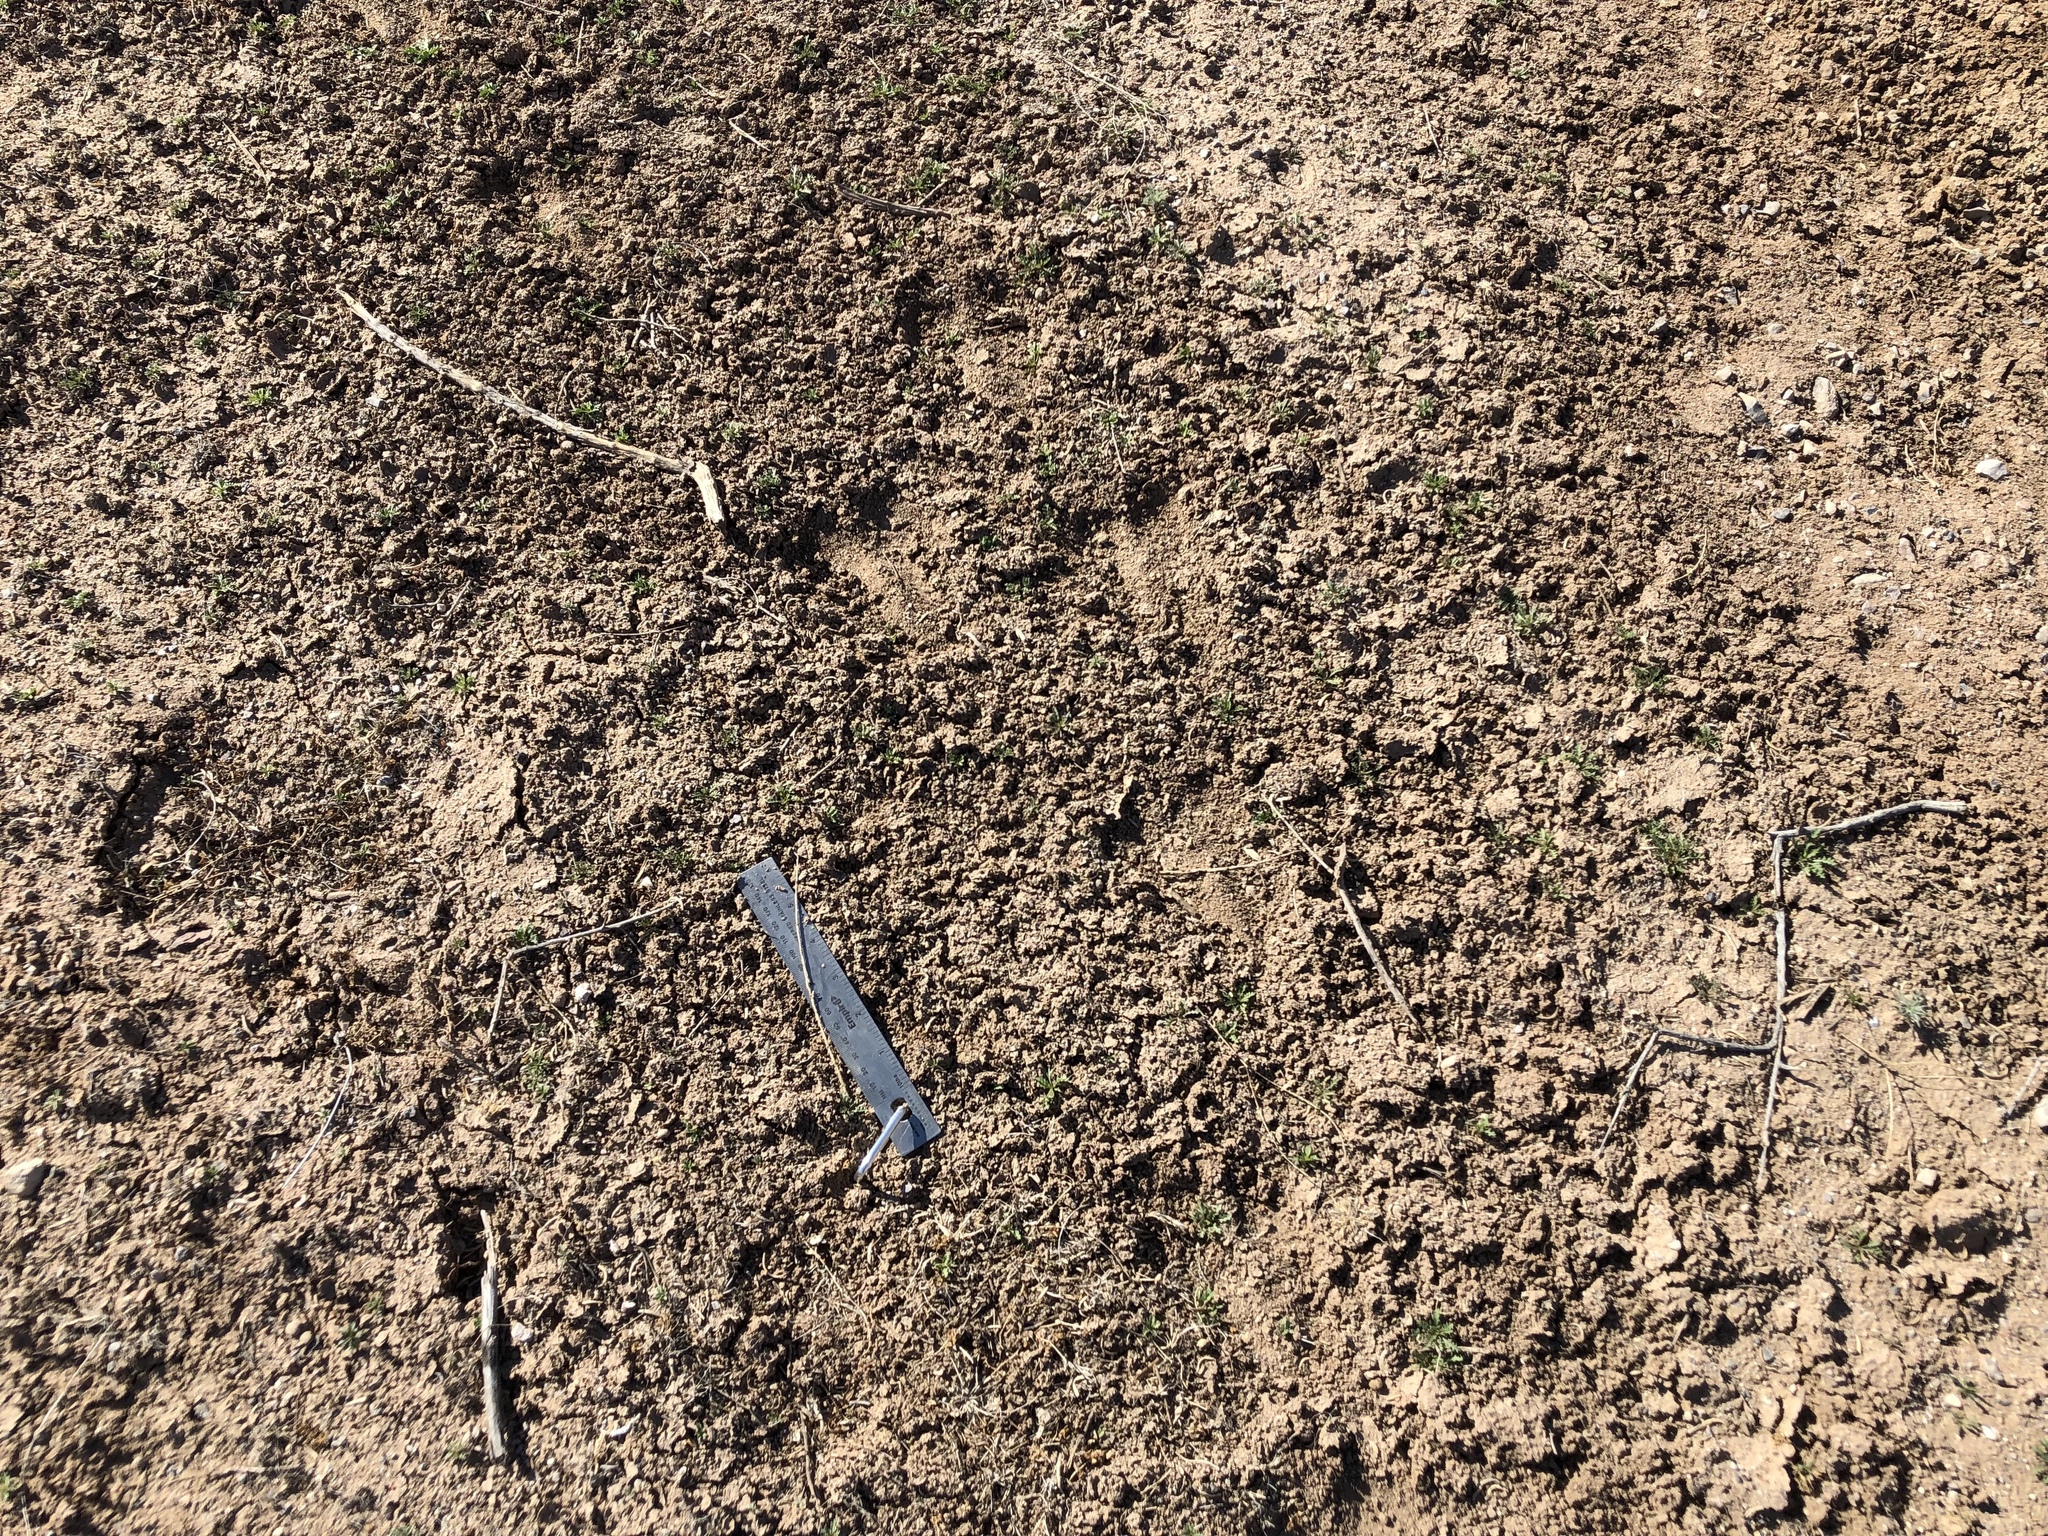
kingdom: Animalia
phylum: Chordata
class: Mammalia
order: Artiodactyla
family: Bovidae
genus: Oryx
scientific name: Oryx gazella
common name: Gemsbok
